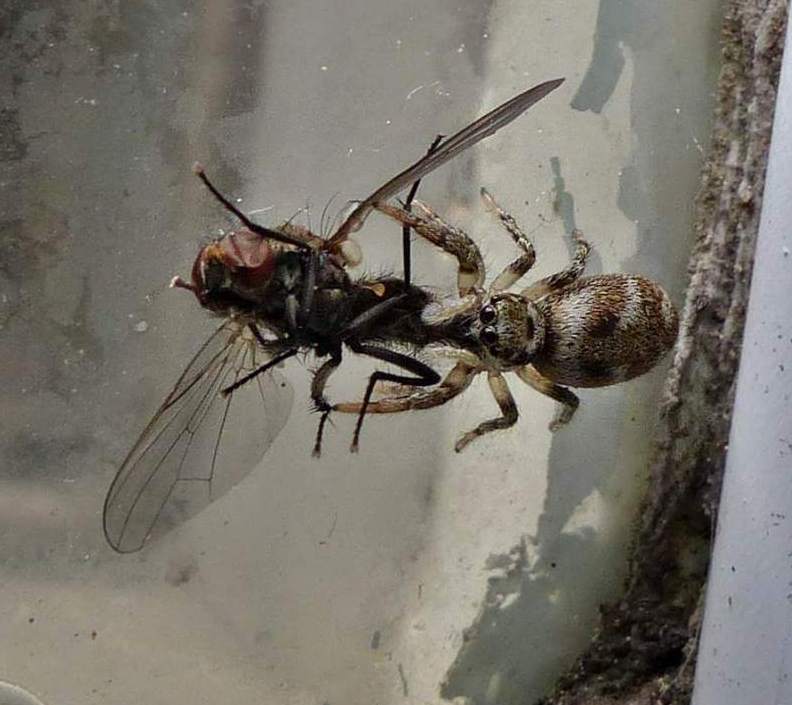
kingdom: Animalia
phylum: Arthropoda
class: Arachnida
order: Araneae
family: Salticidae
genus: Salticus
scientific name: Salticus scenicus
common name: Zebra jumper
